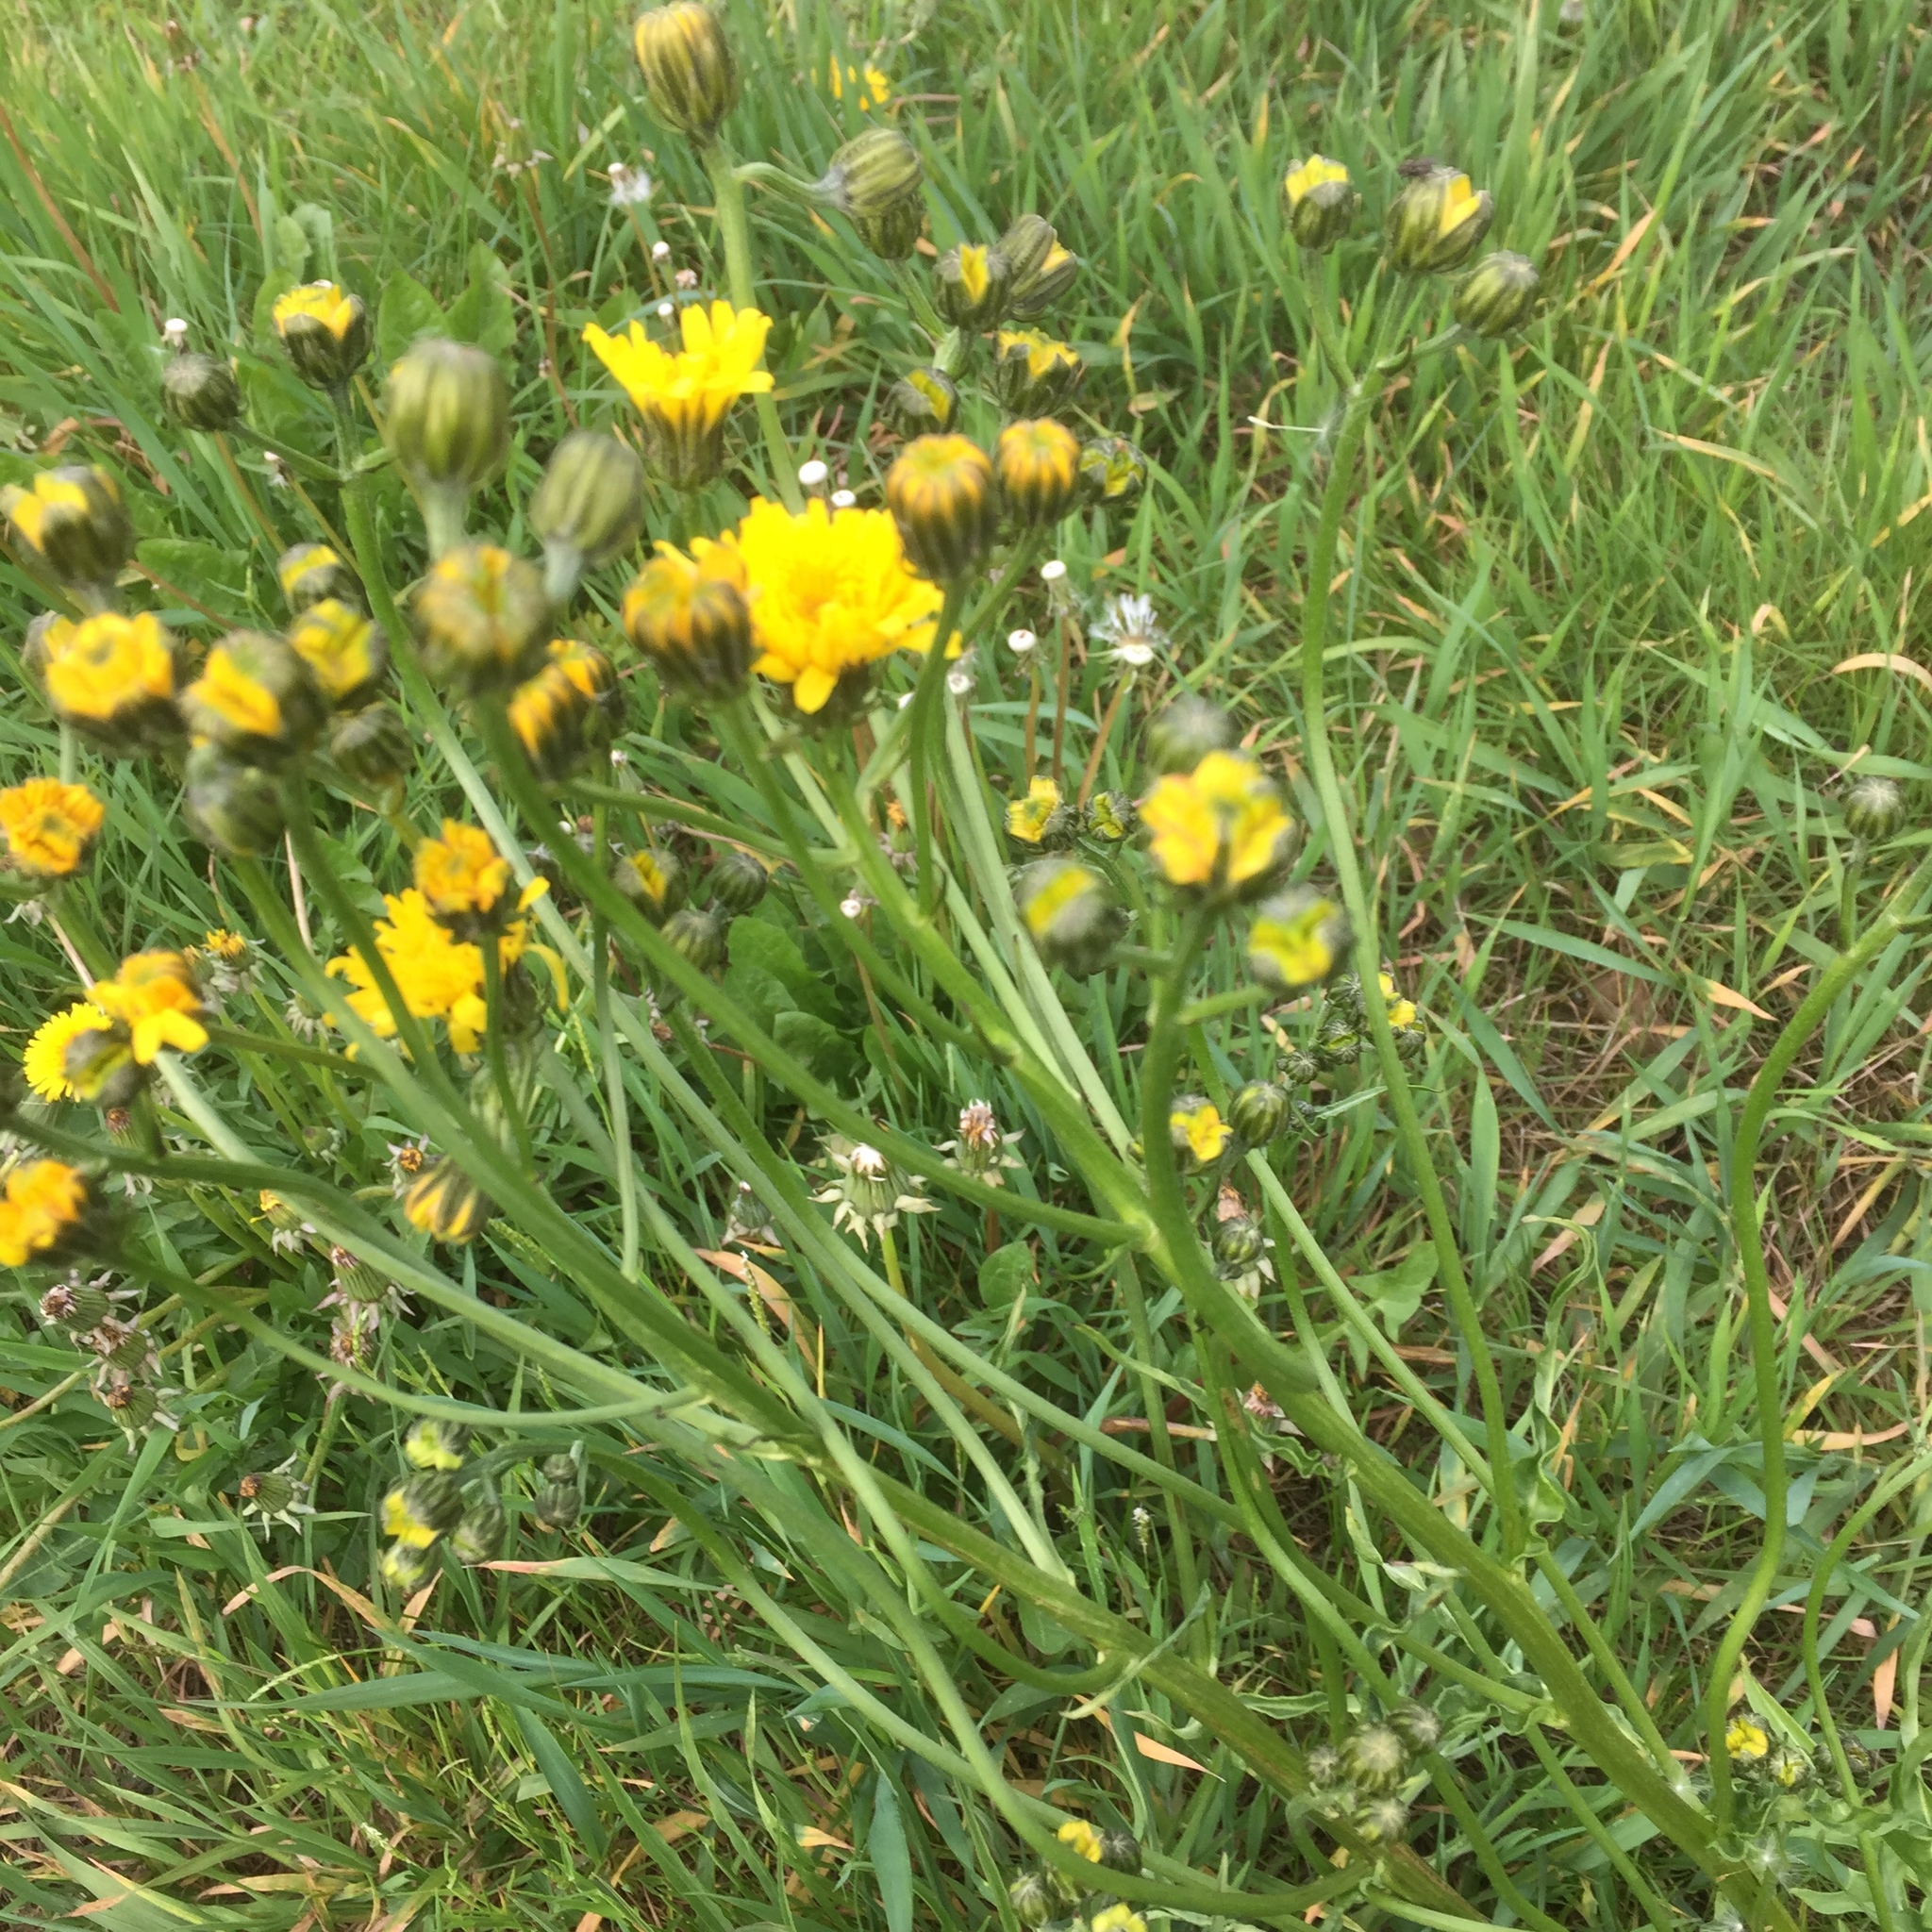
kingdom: Plantae
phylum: Tracheophyta
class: Magnoliopsida
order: Asterales
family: Asteraceae
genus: Crepis
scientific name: Crepis capillaris
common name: Smooth hawksbeard
